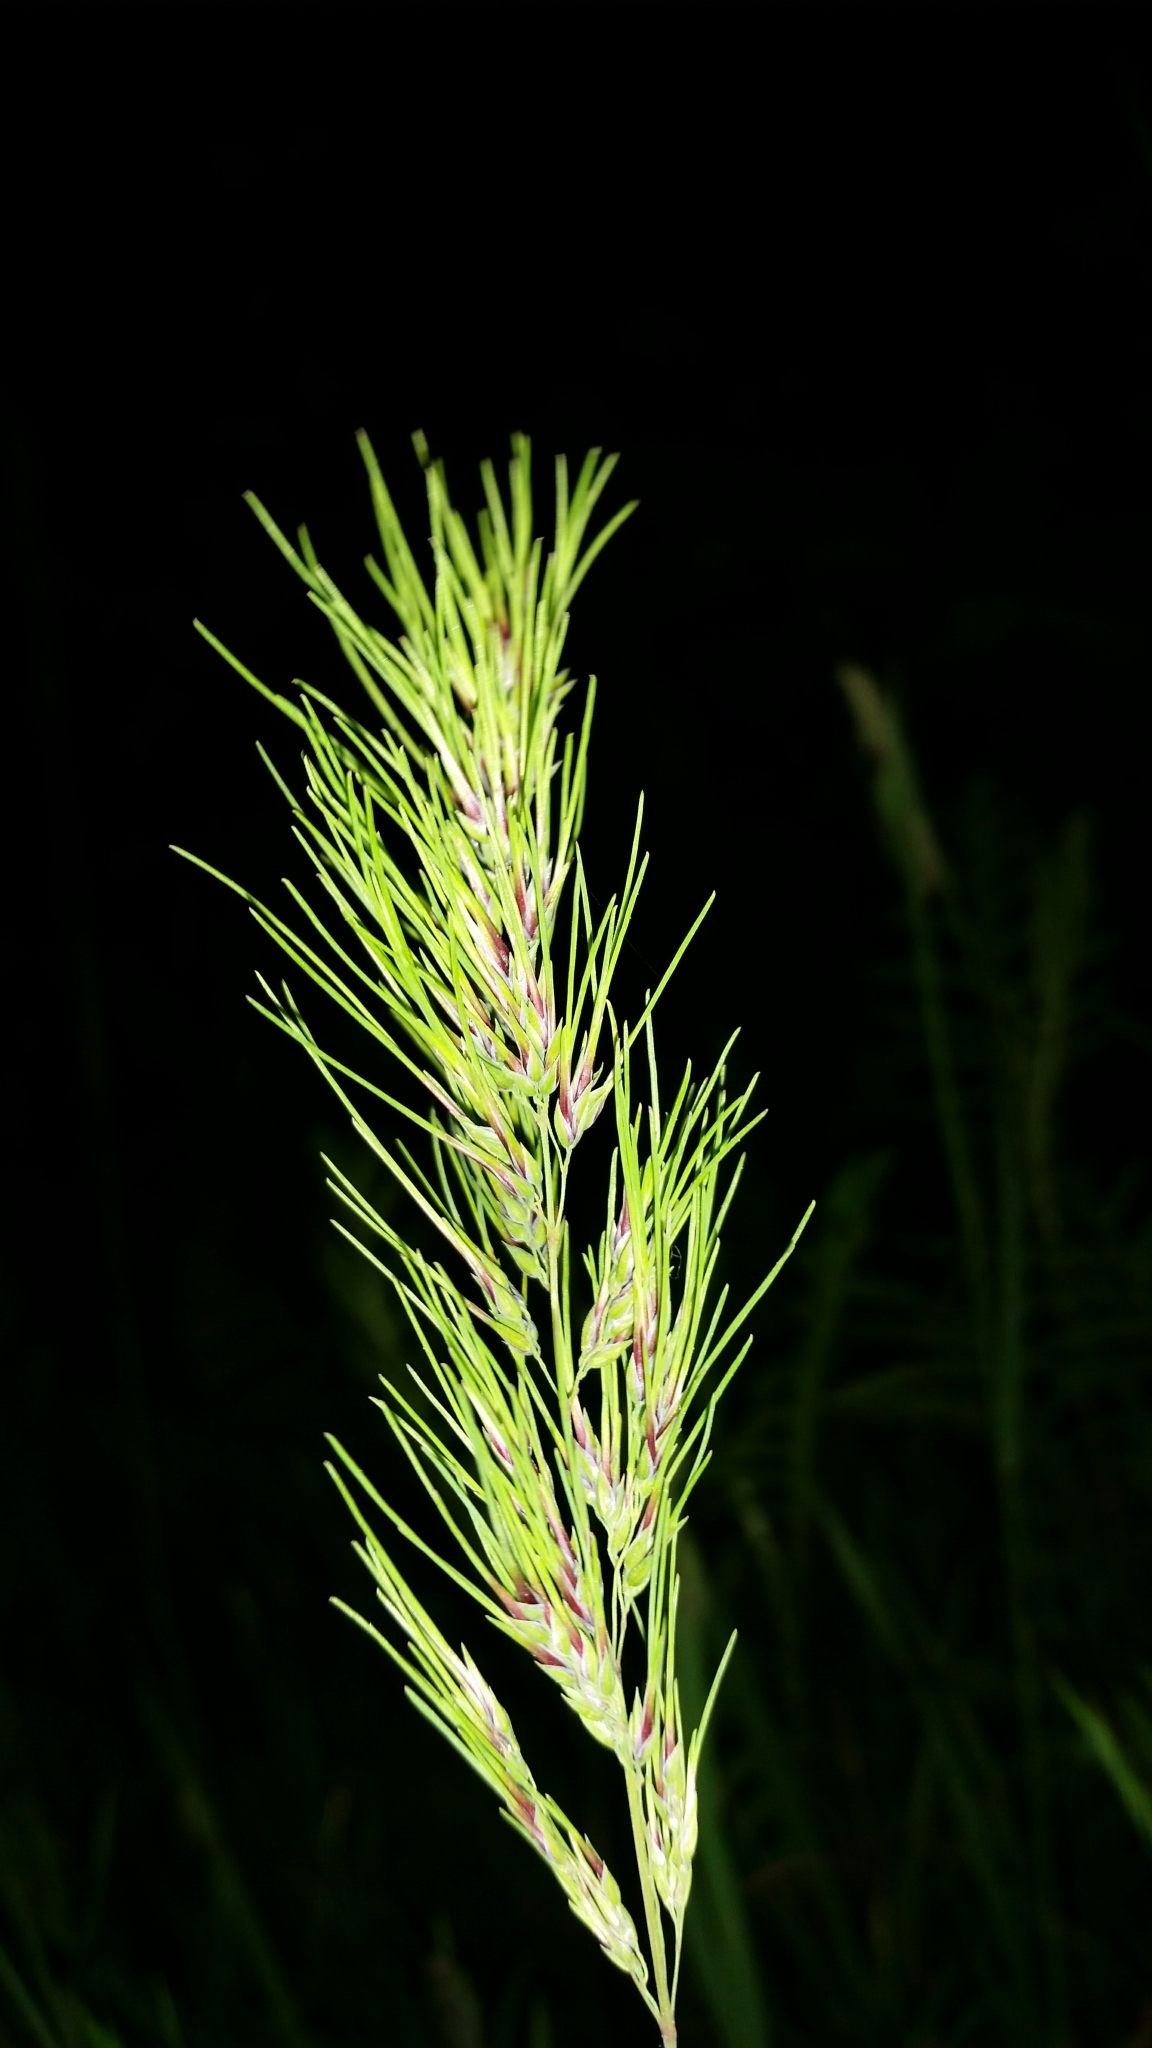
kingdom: Plantae
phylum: Tracheophyta
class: Liliopsida
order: Poales
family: Poaceae
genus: Poa
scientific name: Poa bulbosa
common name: Bulbous bluegrass
